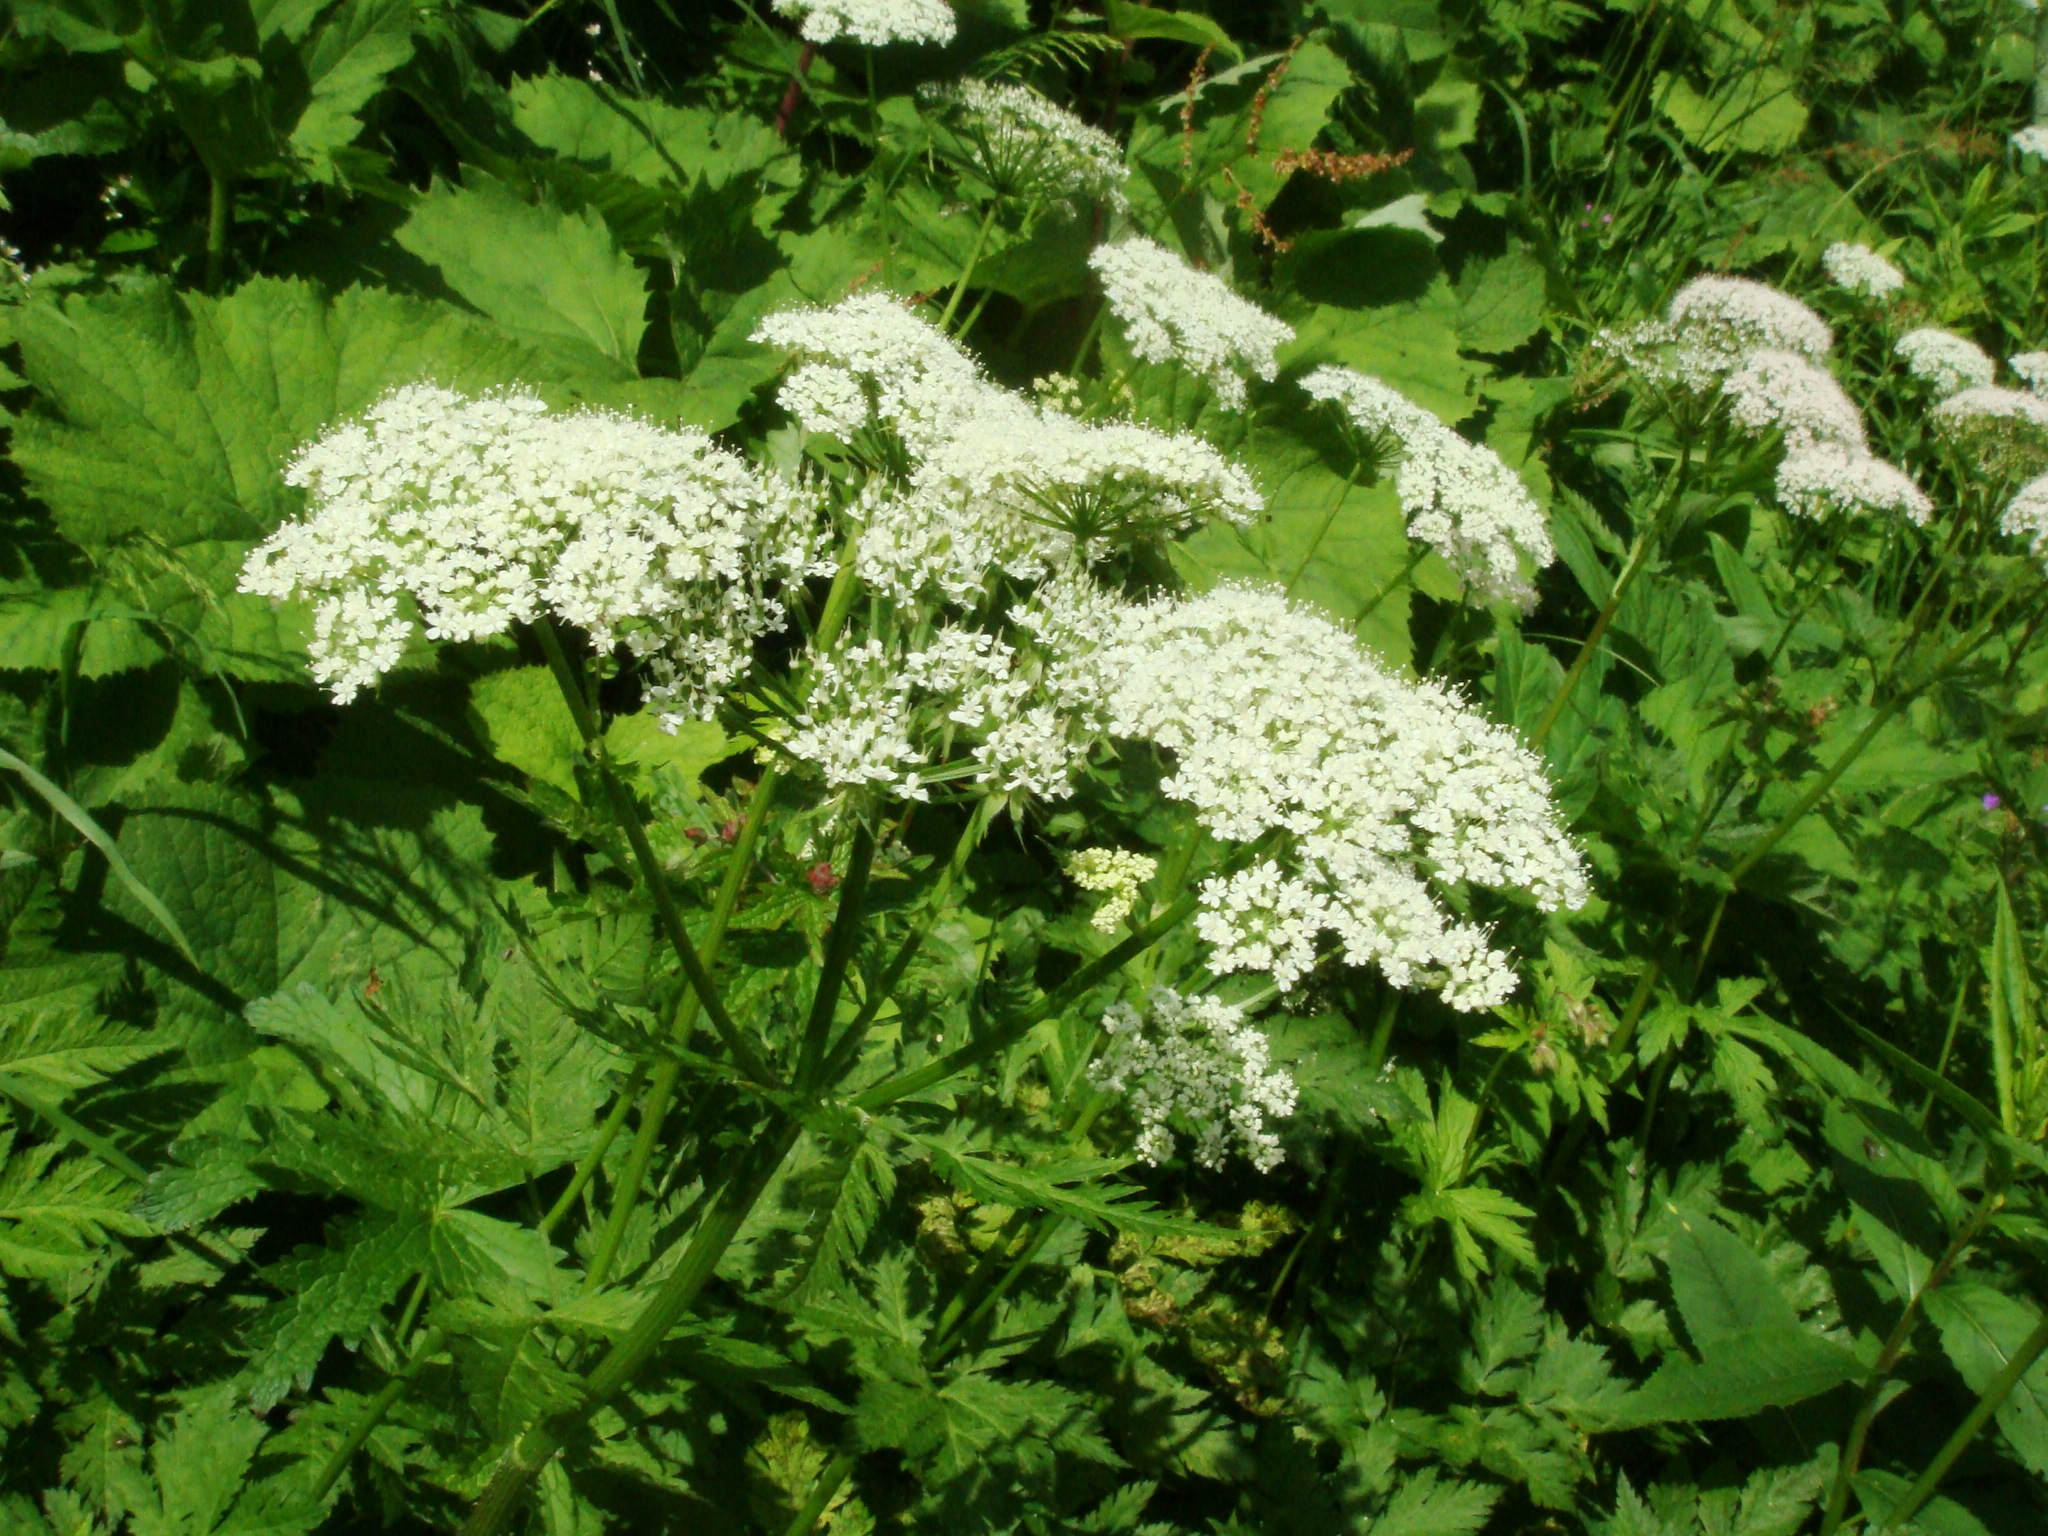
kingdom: Plantae
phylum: Tracheophyta
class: Magnoliopsida
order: Apiales
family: Apiaceae
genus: Chaerophyllum
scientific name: Chaerophyllum hirsutum
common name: Hairy chervil
